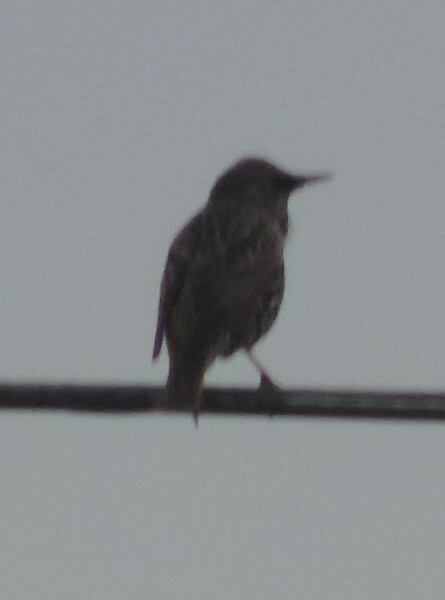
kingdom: Animalia
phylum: Chordata
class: Aves
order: Passeriformes
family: Sturnidae
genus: Sturnus
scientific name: Sturnus vulgaris
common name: Common starling
